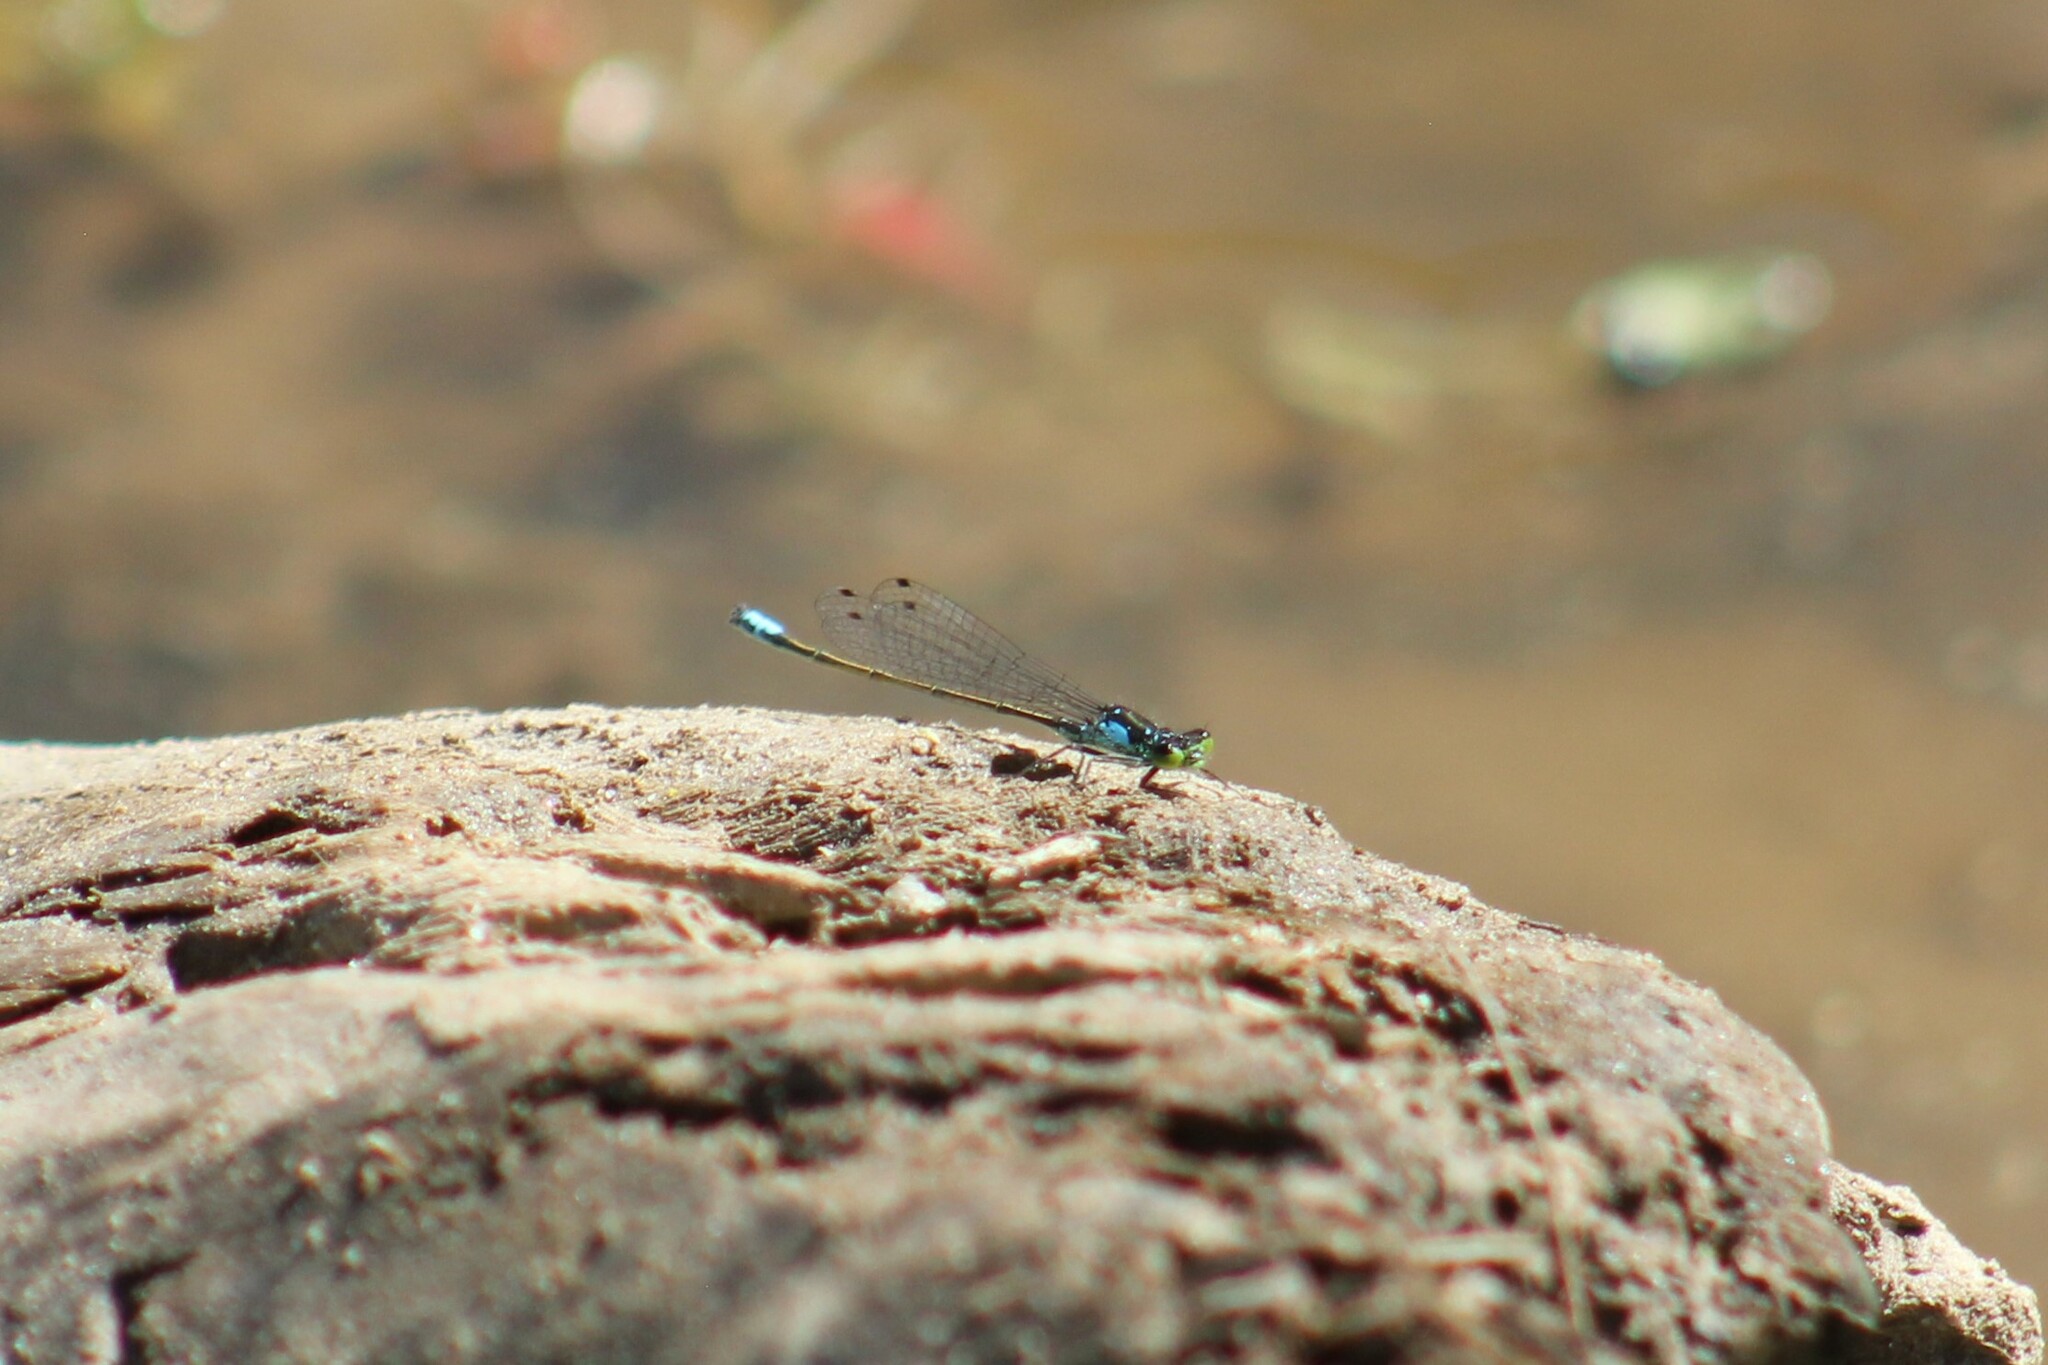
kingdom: Animalia
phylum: Arthropoda
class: Insecta
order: Odonata
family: Coenagrionidae
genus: Ischnura
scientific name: Ischnura cervula
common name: Pacific forktail
